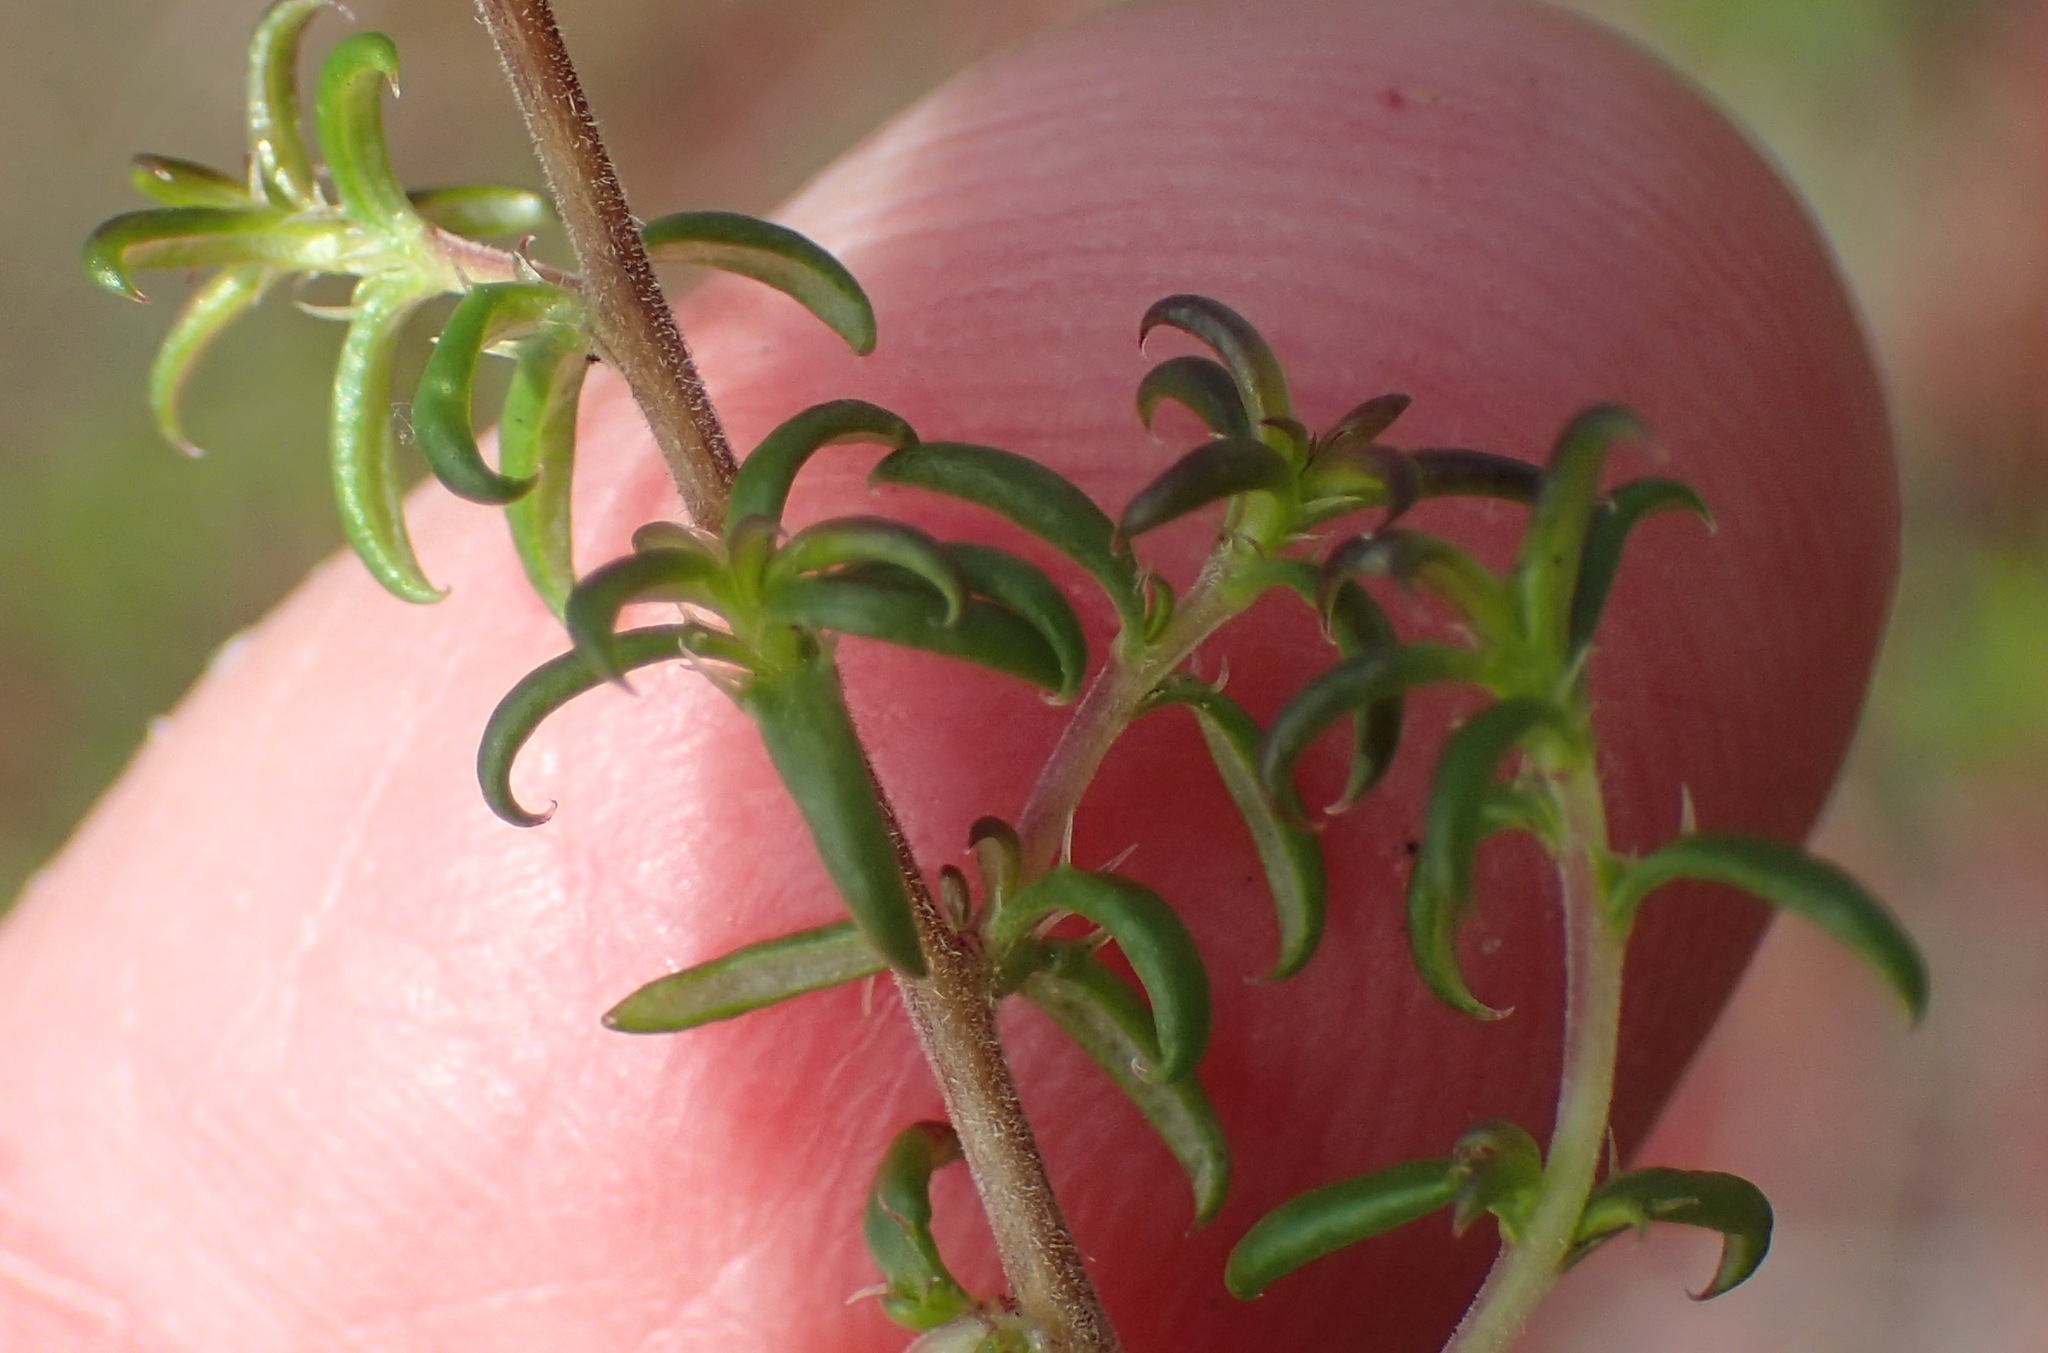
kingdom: Plantae
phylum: Tracheophyta
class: Magnoliopsida
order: Asterales
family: Campanulaceae
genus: Wahlenbergia
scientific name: Wahlenbergia thunbergii
